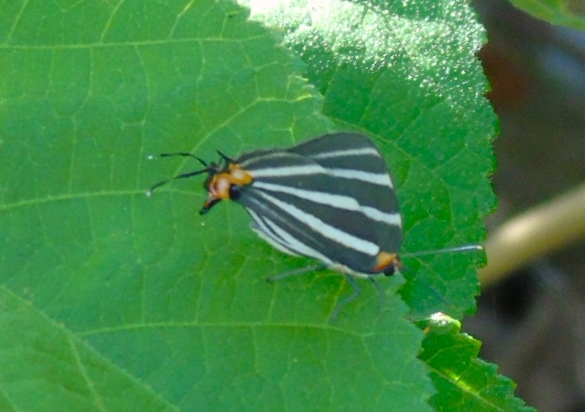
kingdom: Animalia
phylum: Arthropoda
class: Insecta
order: Lepidoptera
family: Lycaenidae
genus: Thecla
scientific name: Thecla bathildis
